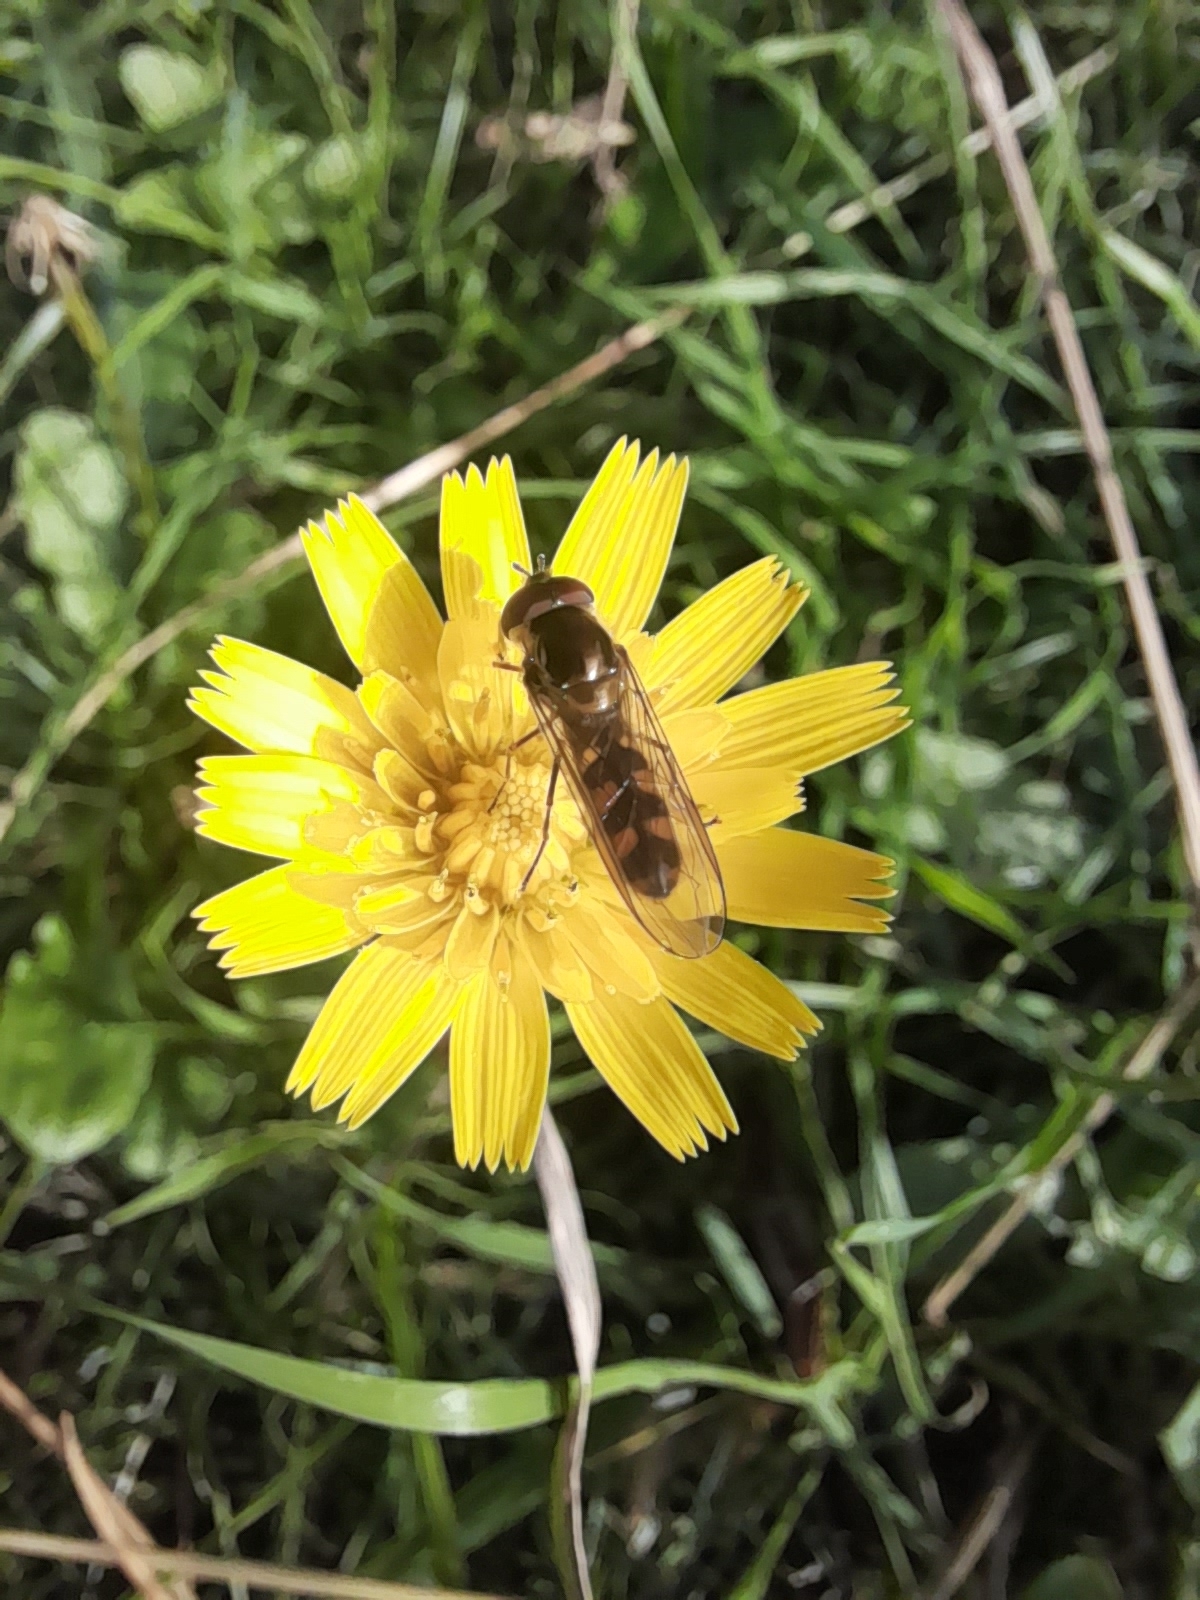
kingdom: Animalia
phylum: Arthropoda
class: Insecta
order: Diptera
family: Syrphidae
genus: Meliscaeva
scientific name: Meliscaeva auricollis
